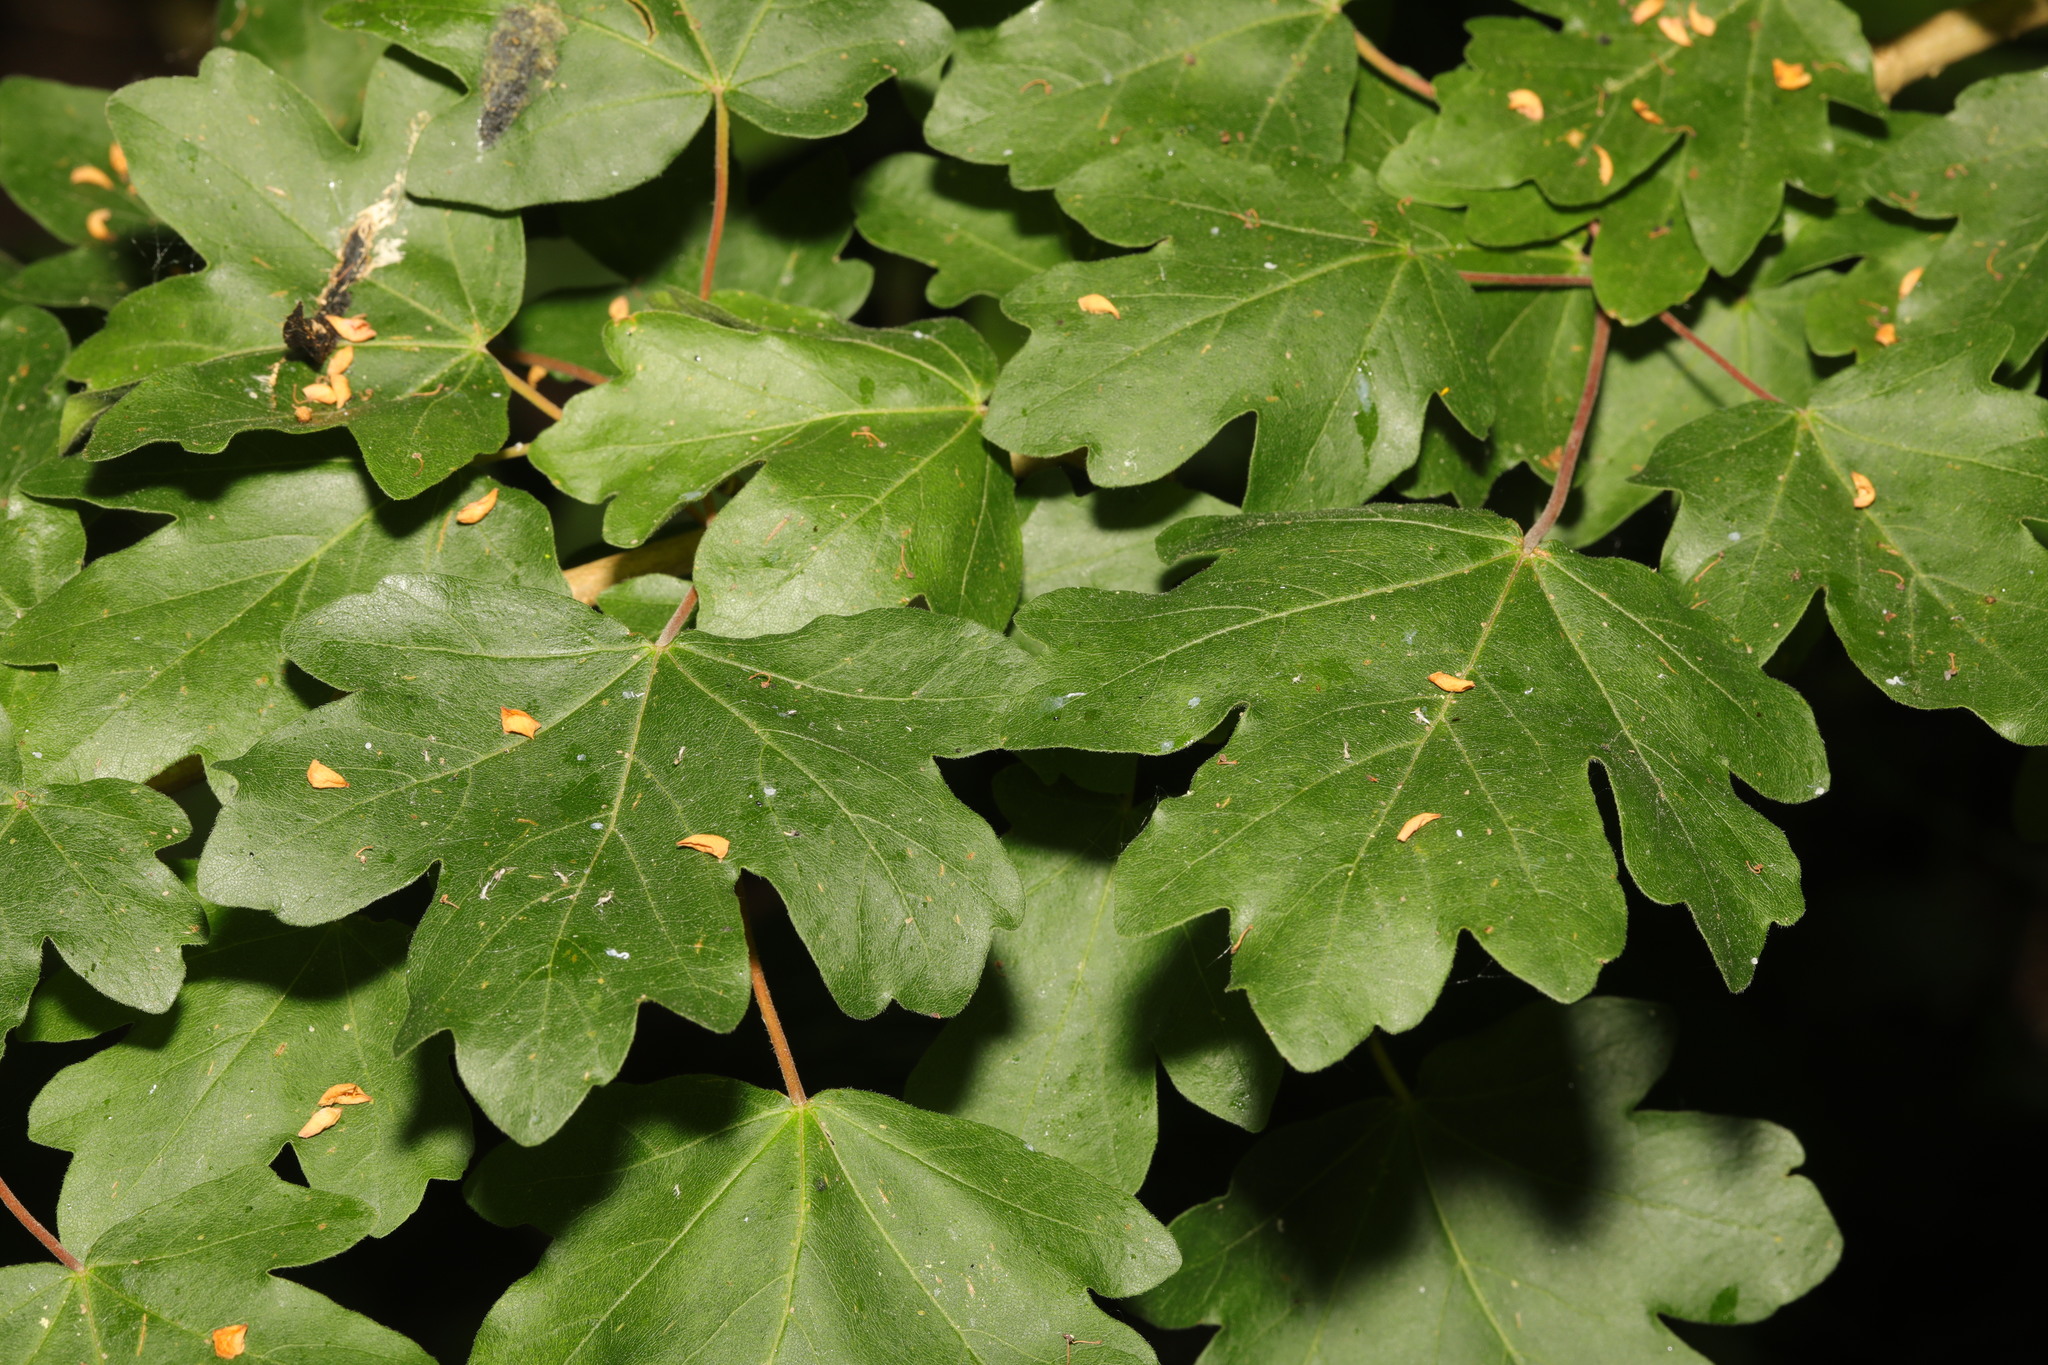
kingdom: Plantae
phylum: Tracheophyta
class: Magnoliopsida
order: Sapindales
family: Sapindaceae
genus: Acer
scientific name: Acer campestre
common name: Field maple
